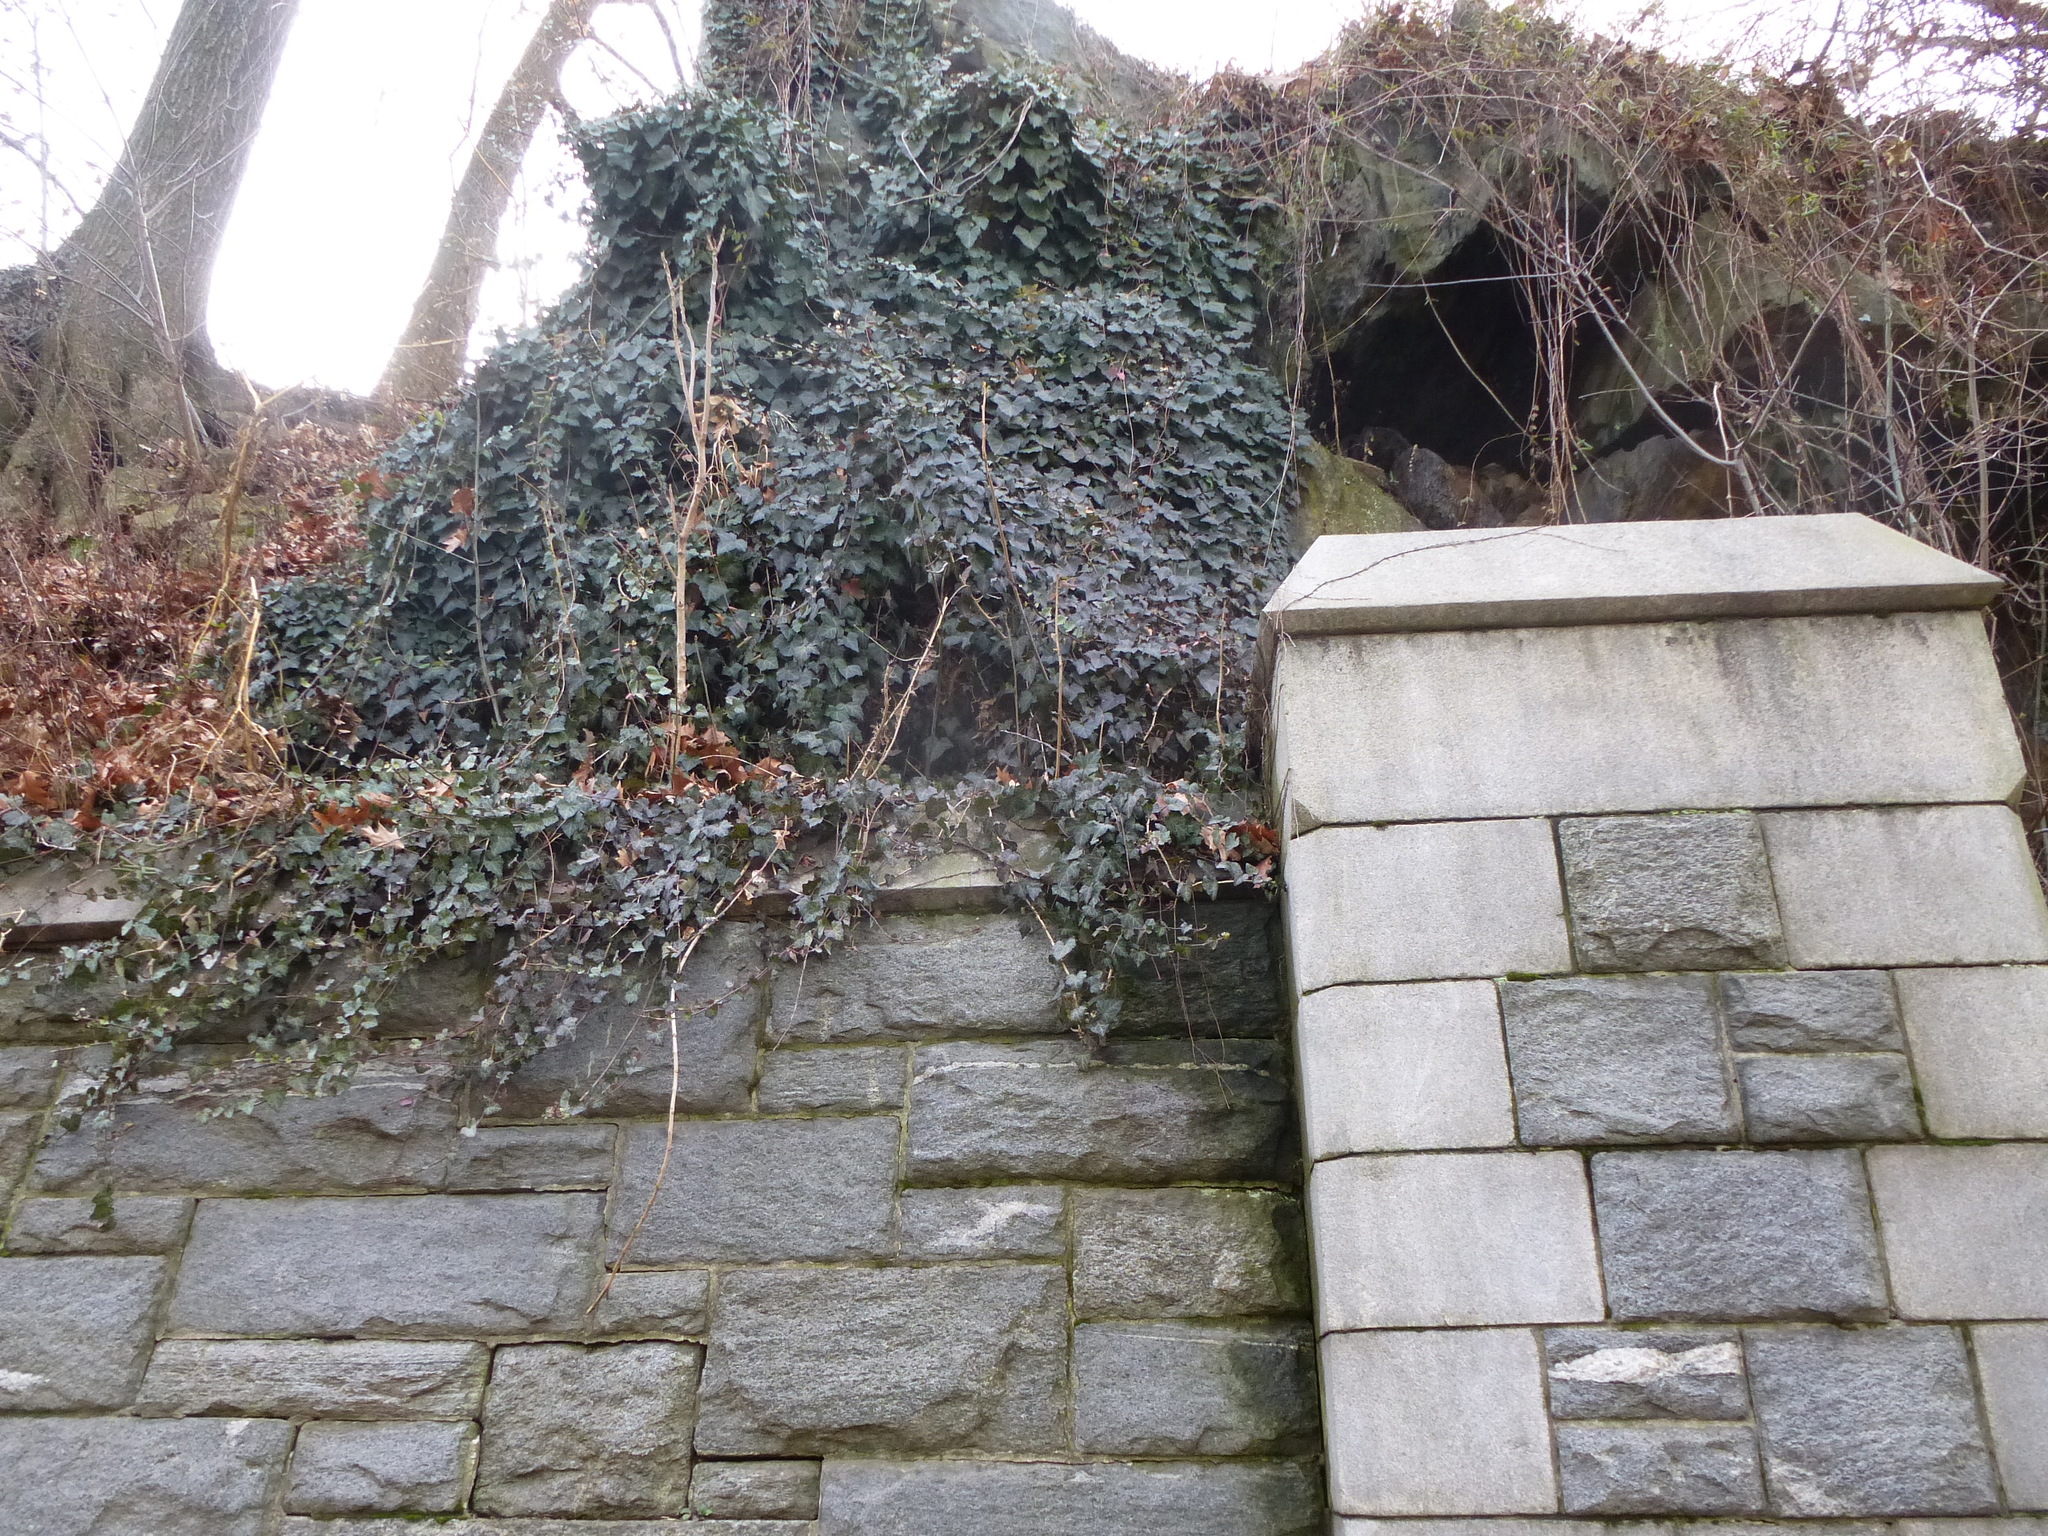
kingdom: Plantae
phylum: Tracheophyta
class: Magnoliopsida
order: Apiales
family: Araliaceae
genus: Hedera
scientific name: Hedera helix
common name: Ivy
